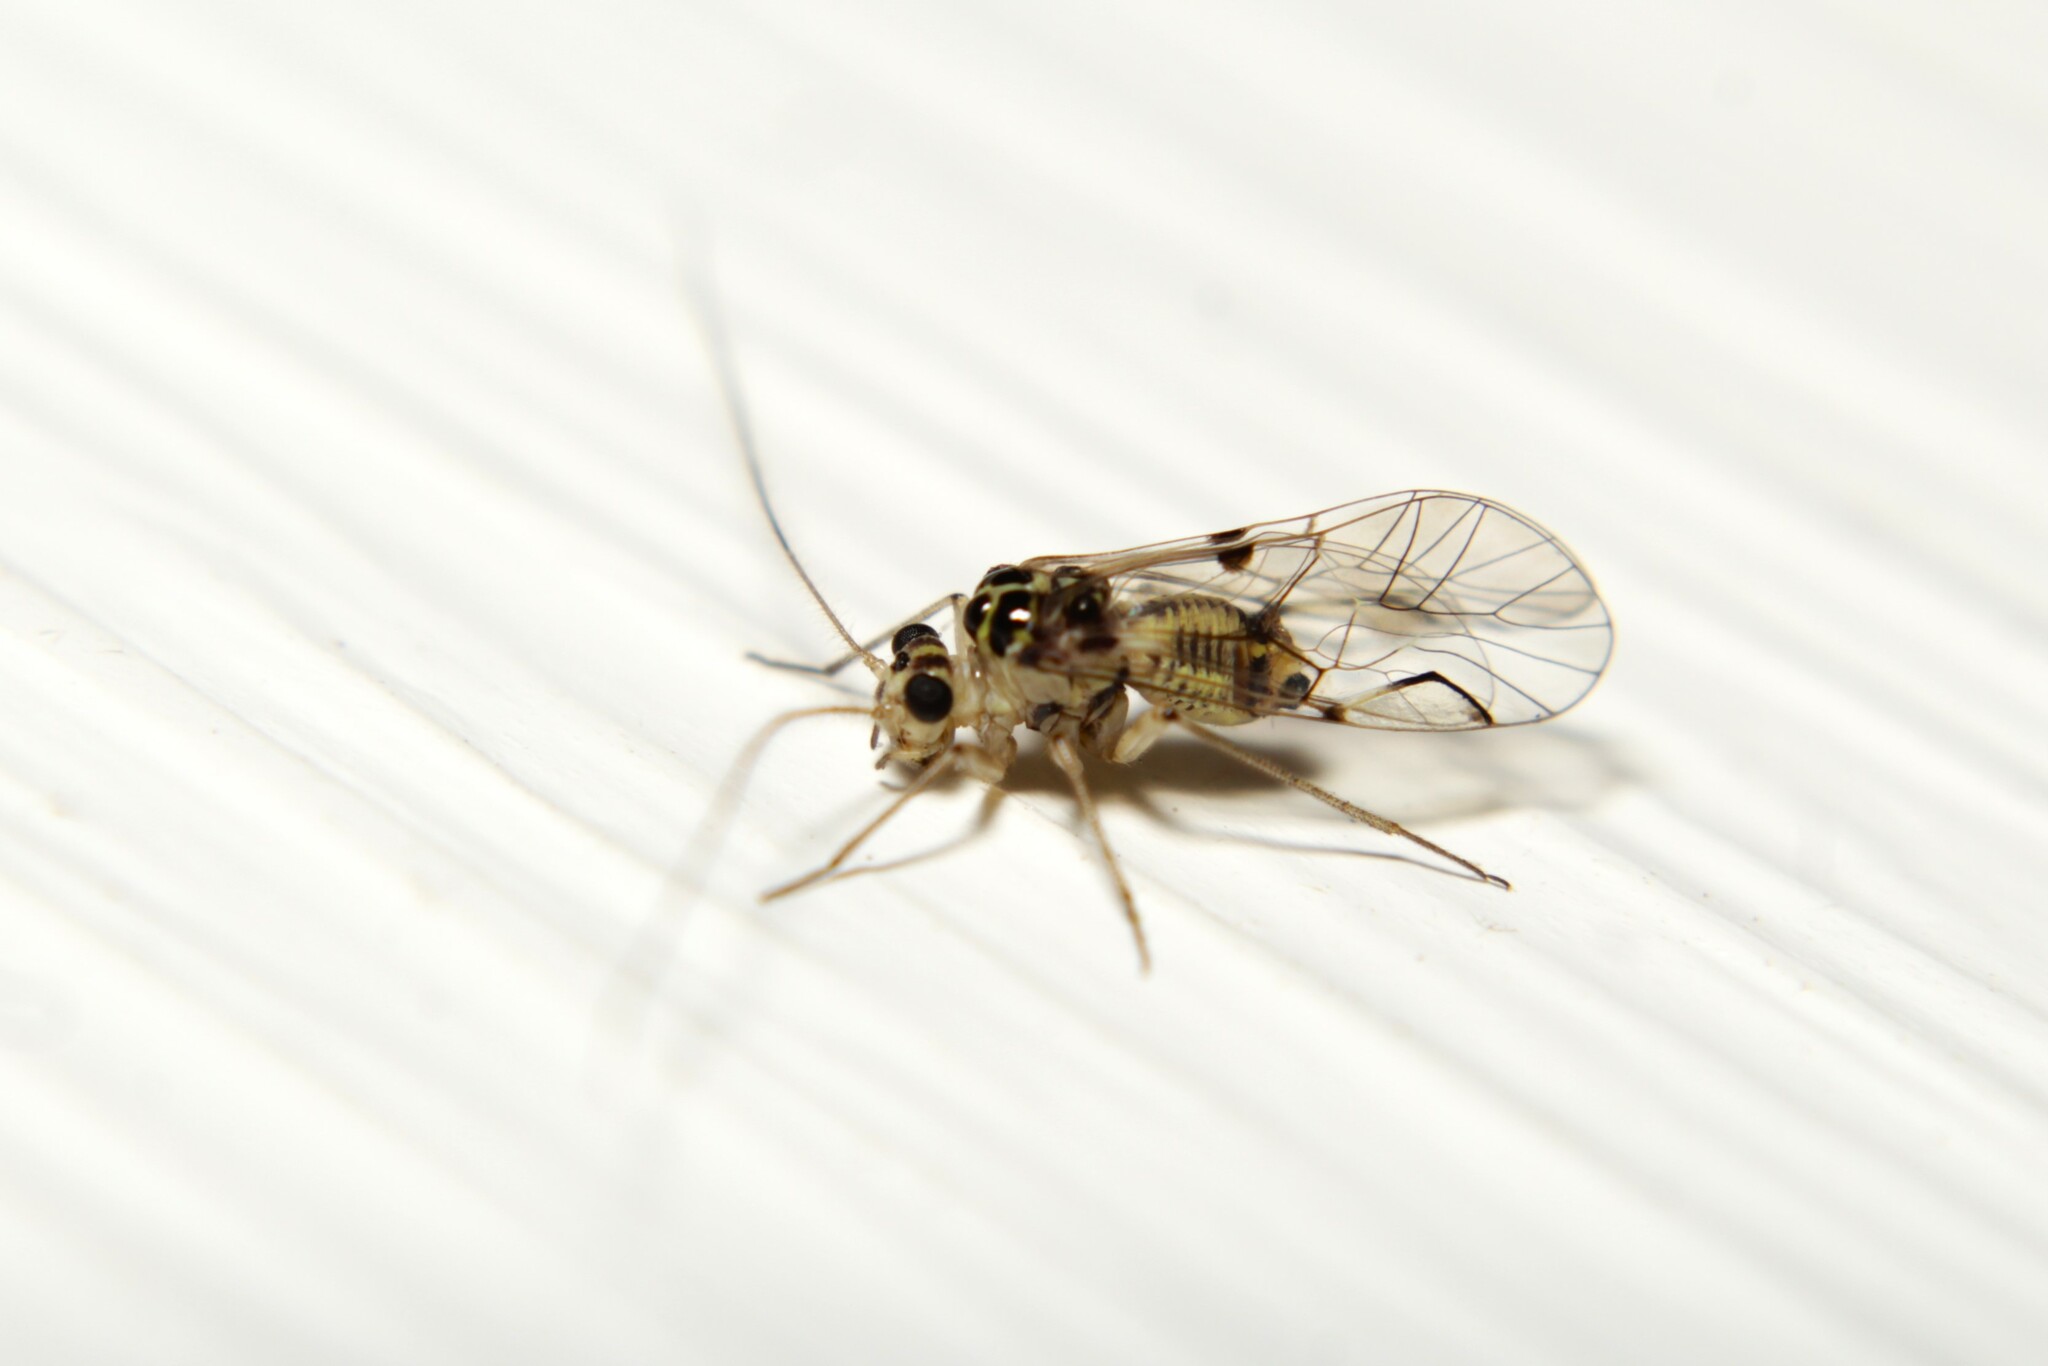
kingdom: Animalia
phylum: Arthropoda
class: Insecta
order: Psocodea
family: Psocidae
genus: Metylophorus
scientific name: Metylophorus purus
